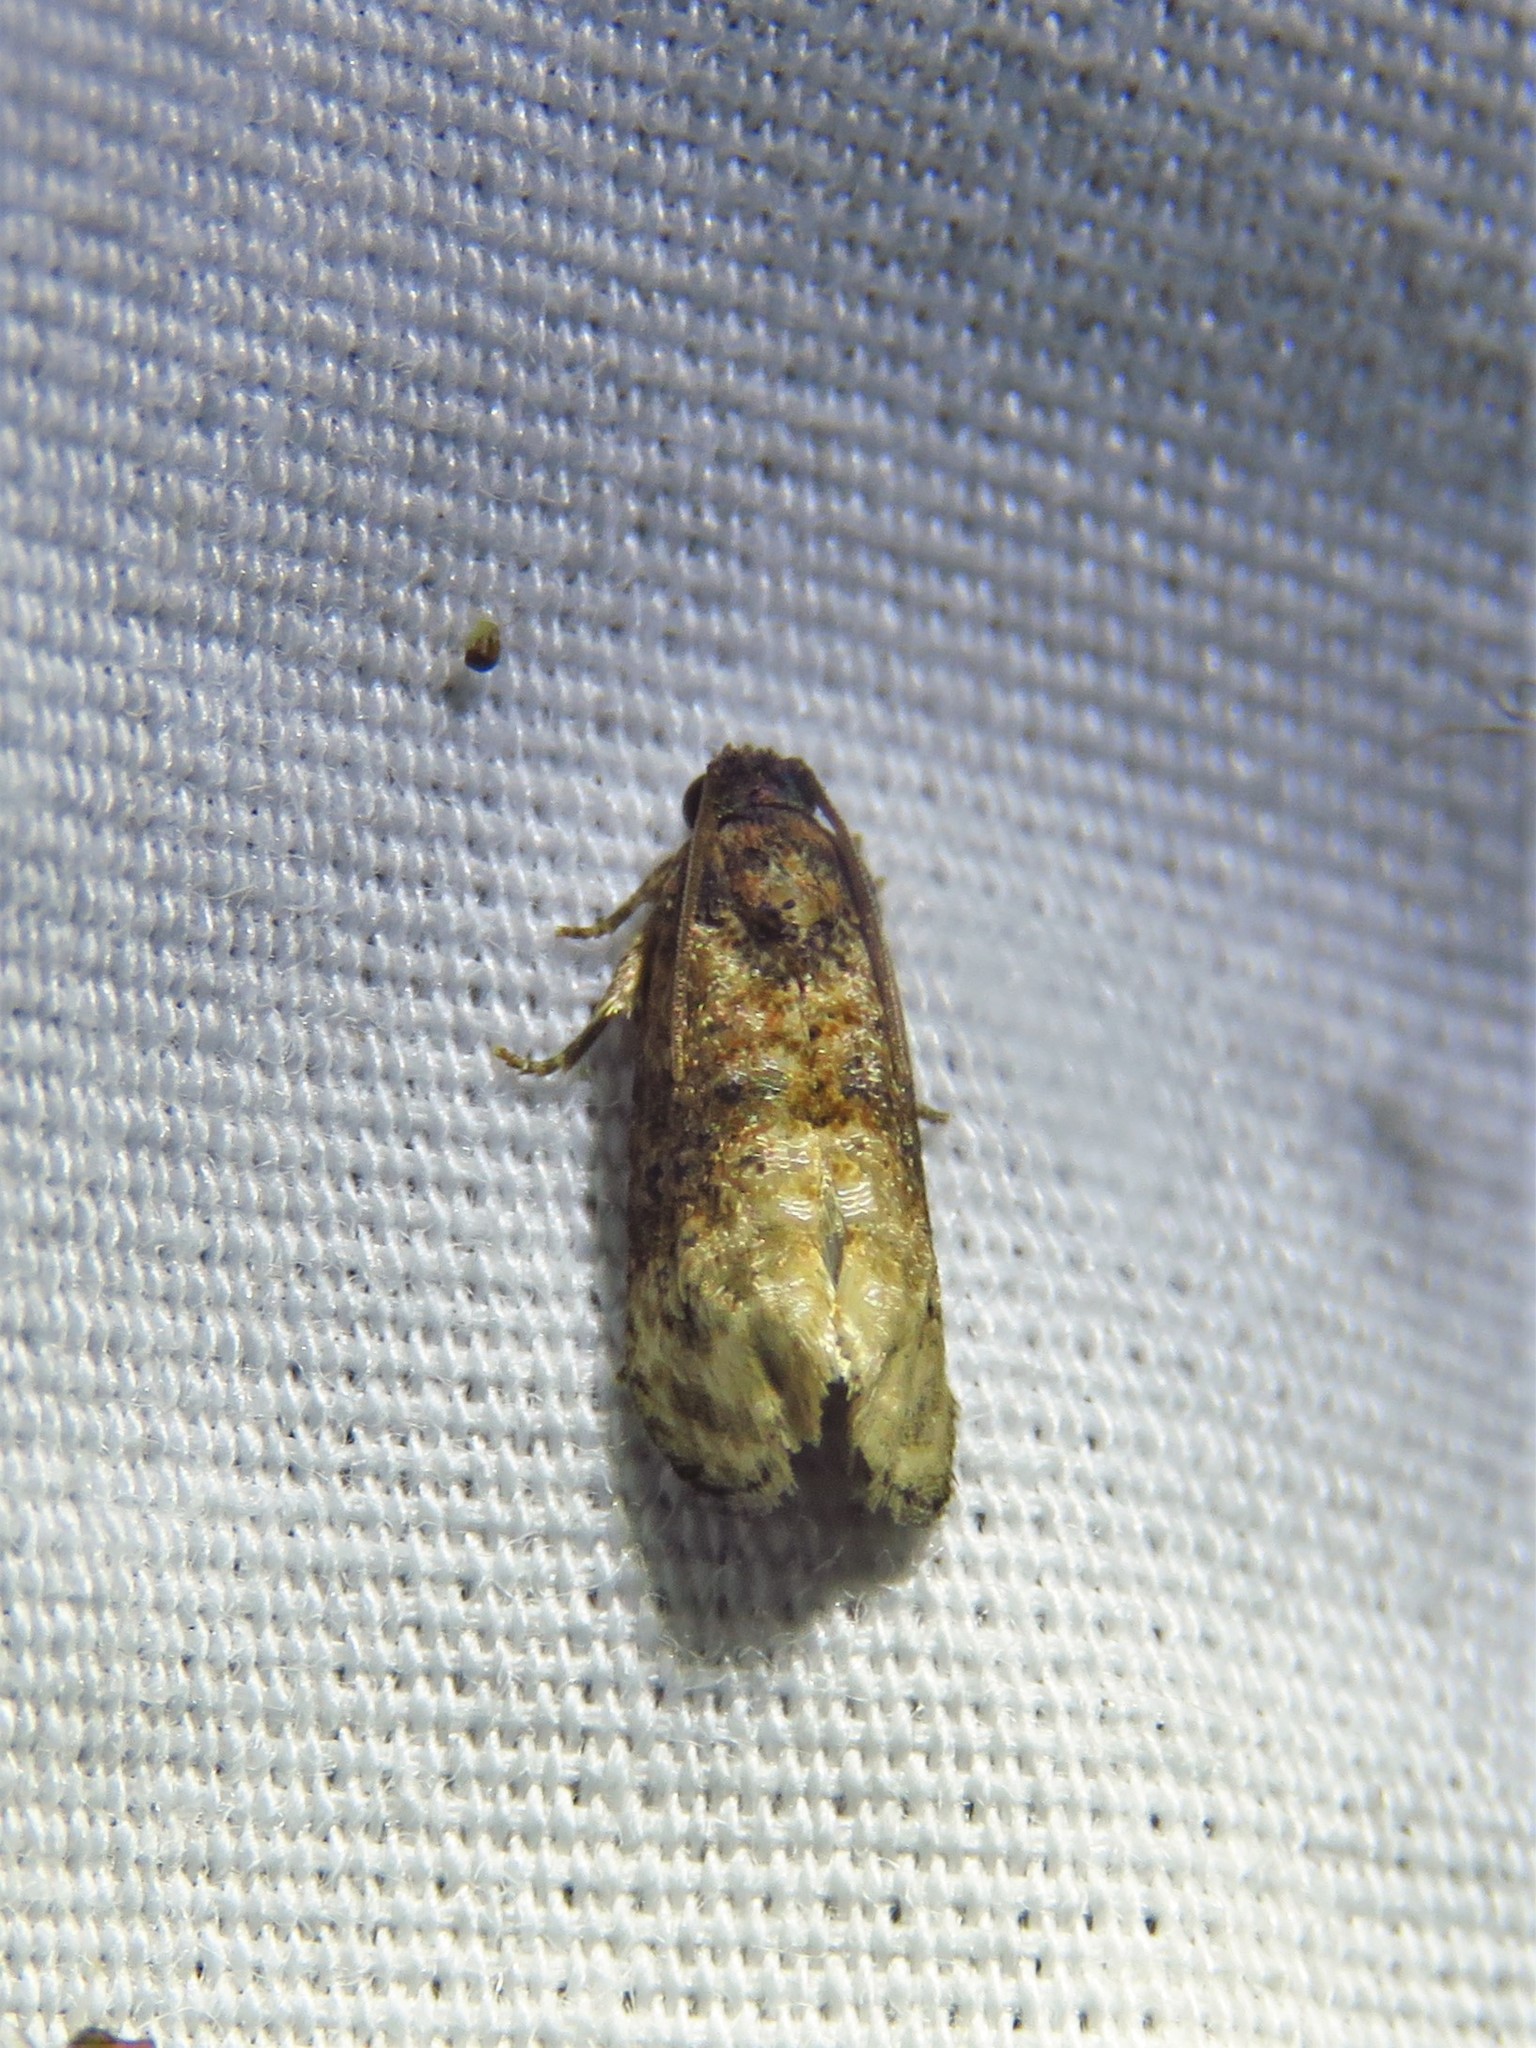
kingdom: Animalia
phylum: Arthropoda
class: Insecta
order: Lepidoptera
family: Tortricidae
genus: Ecdytolopha
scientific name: Ecdytolopha mana
